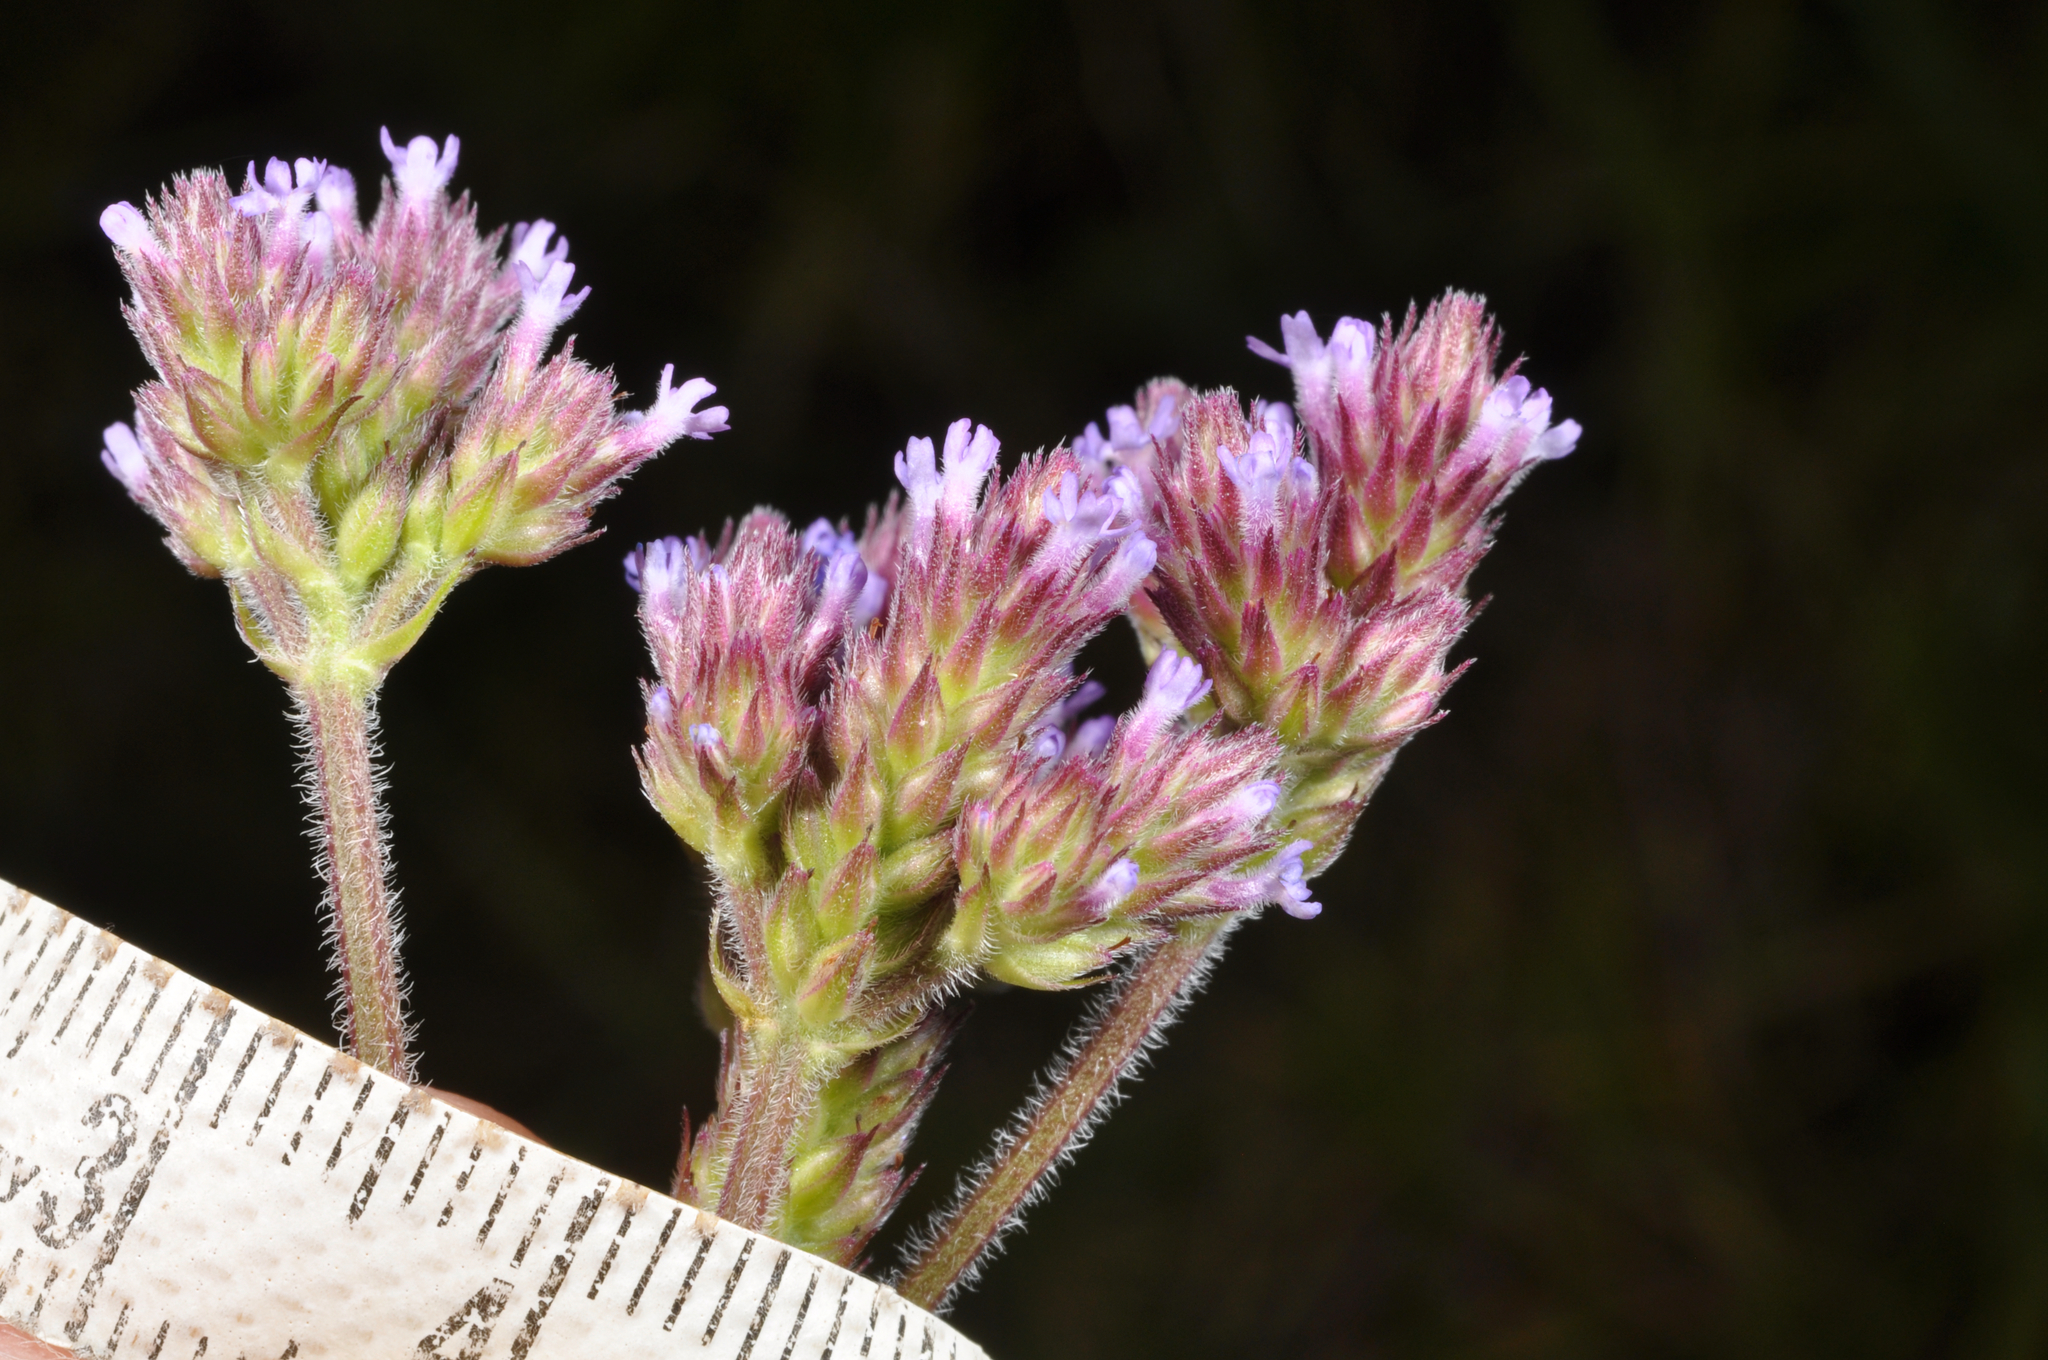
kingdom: Plantae
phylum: Tracheophyta
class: Magnoliopsida
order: Lamiales
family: Verbenaceae
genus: Verbena
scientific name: Verbena incompta
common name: Purpletop vervain
